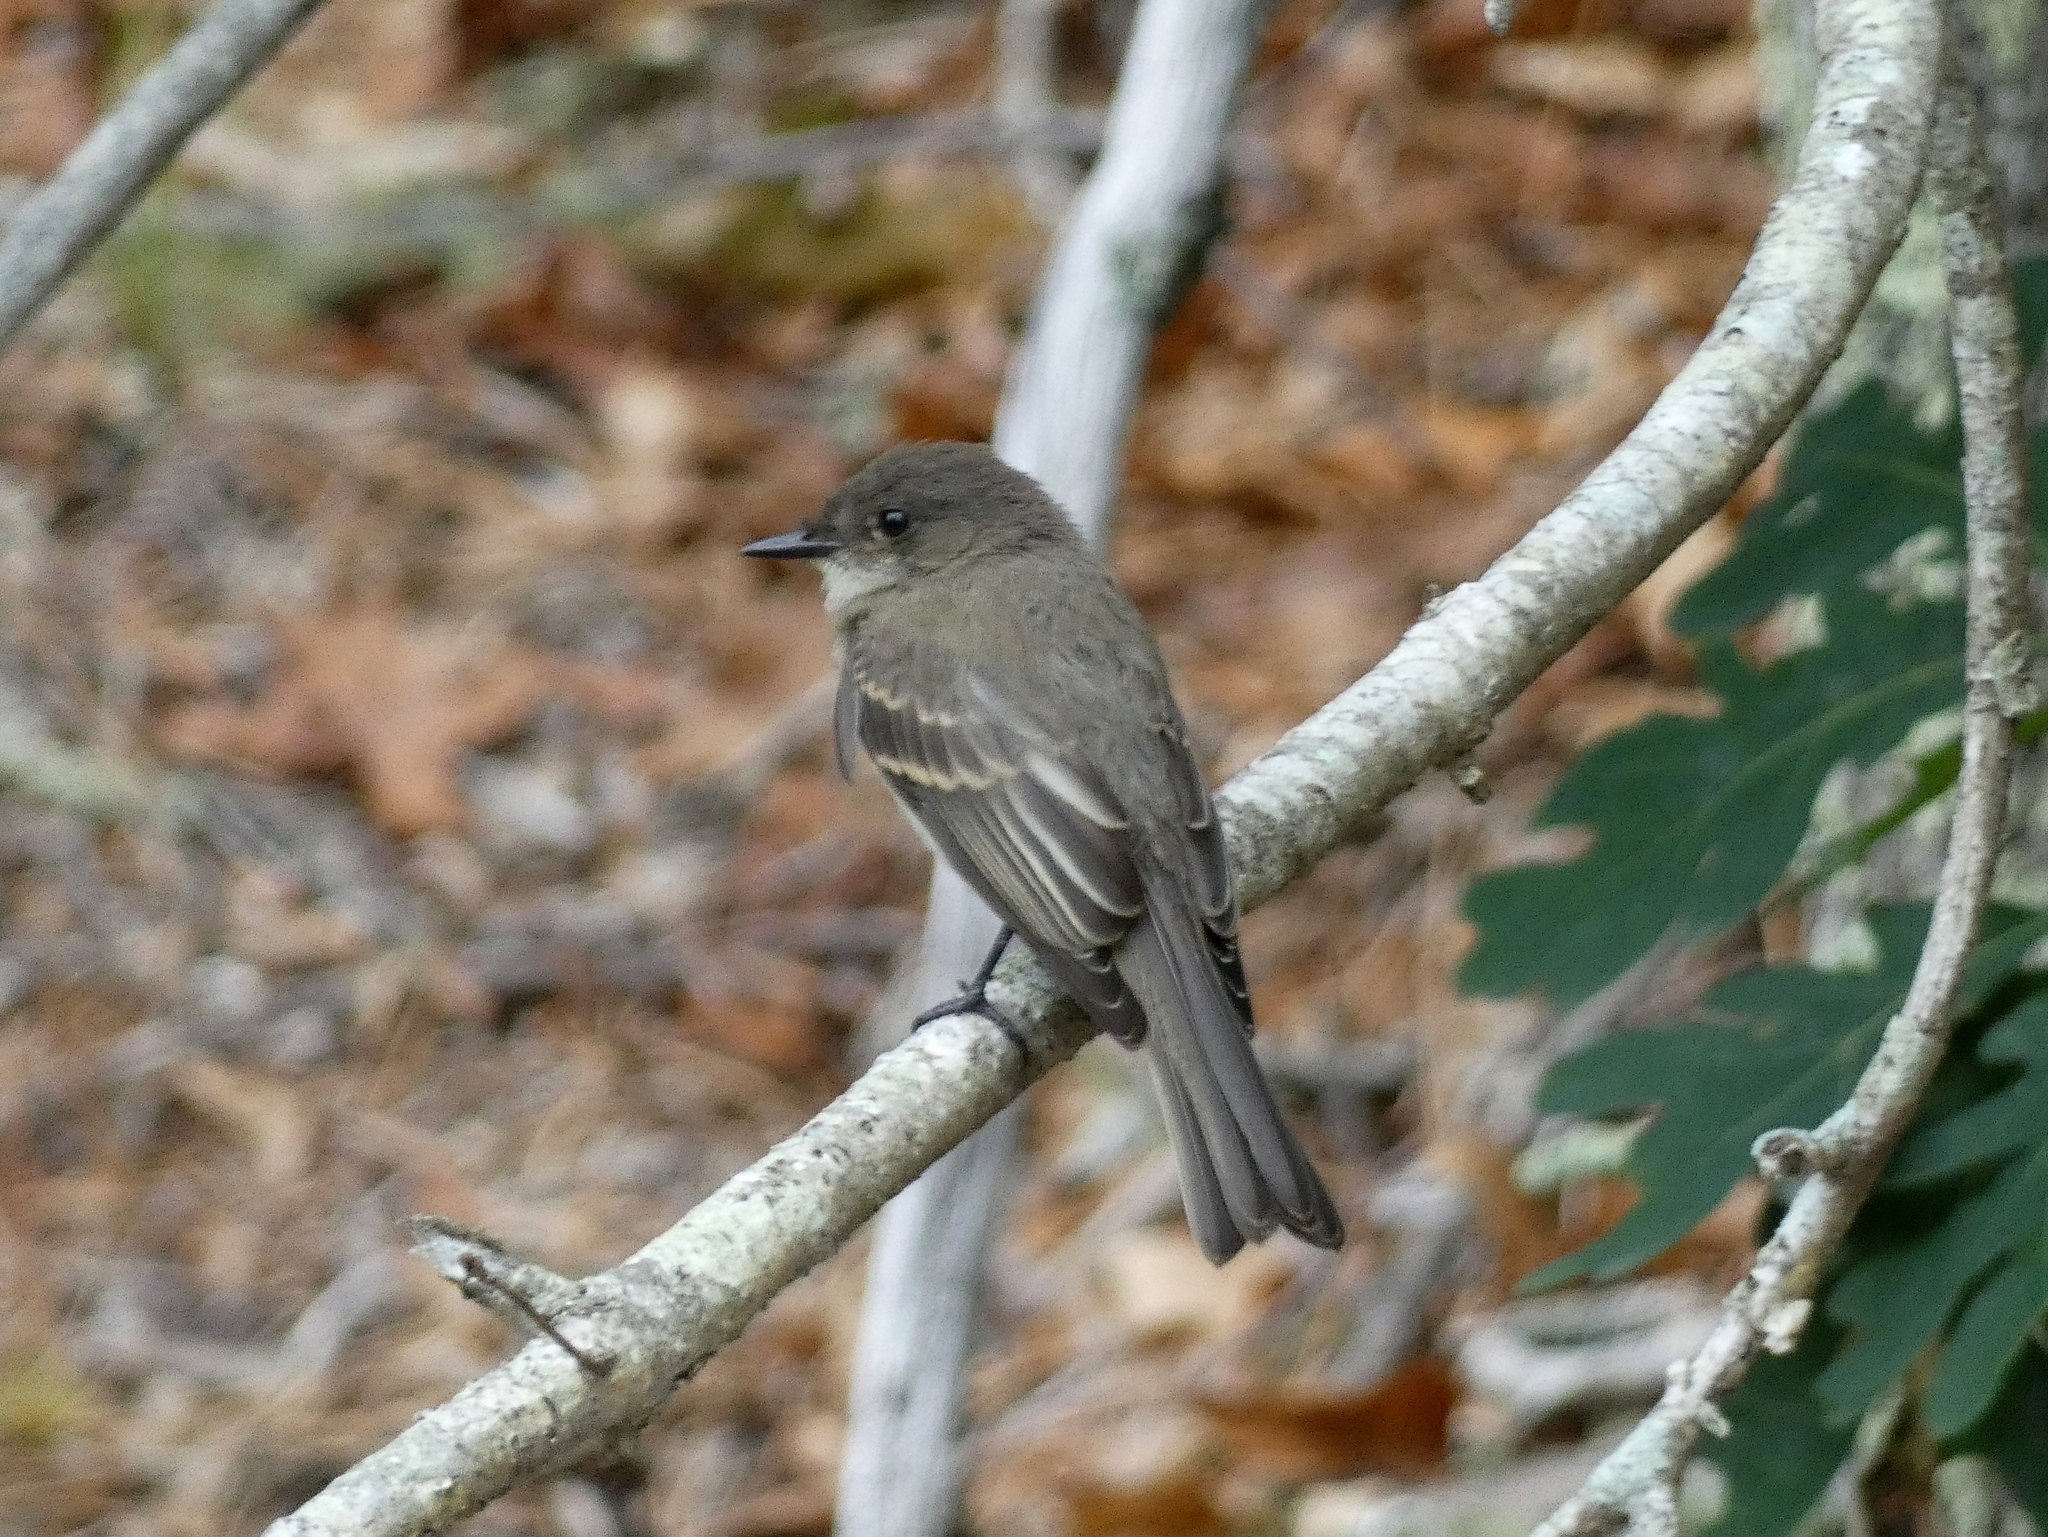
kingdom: Animalia
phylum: Chordata
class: Aves
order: Passeriformes
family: Tyrannidae
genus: Sayornis
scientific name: Sayornis phoebe
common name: Eastern phoebe
